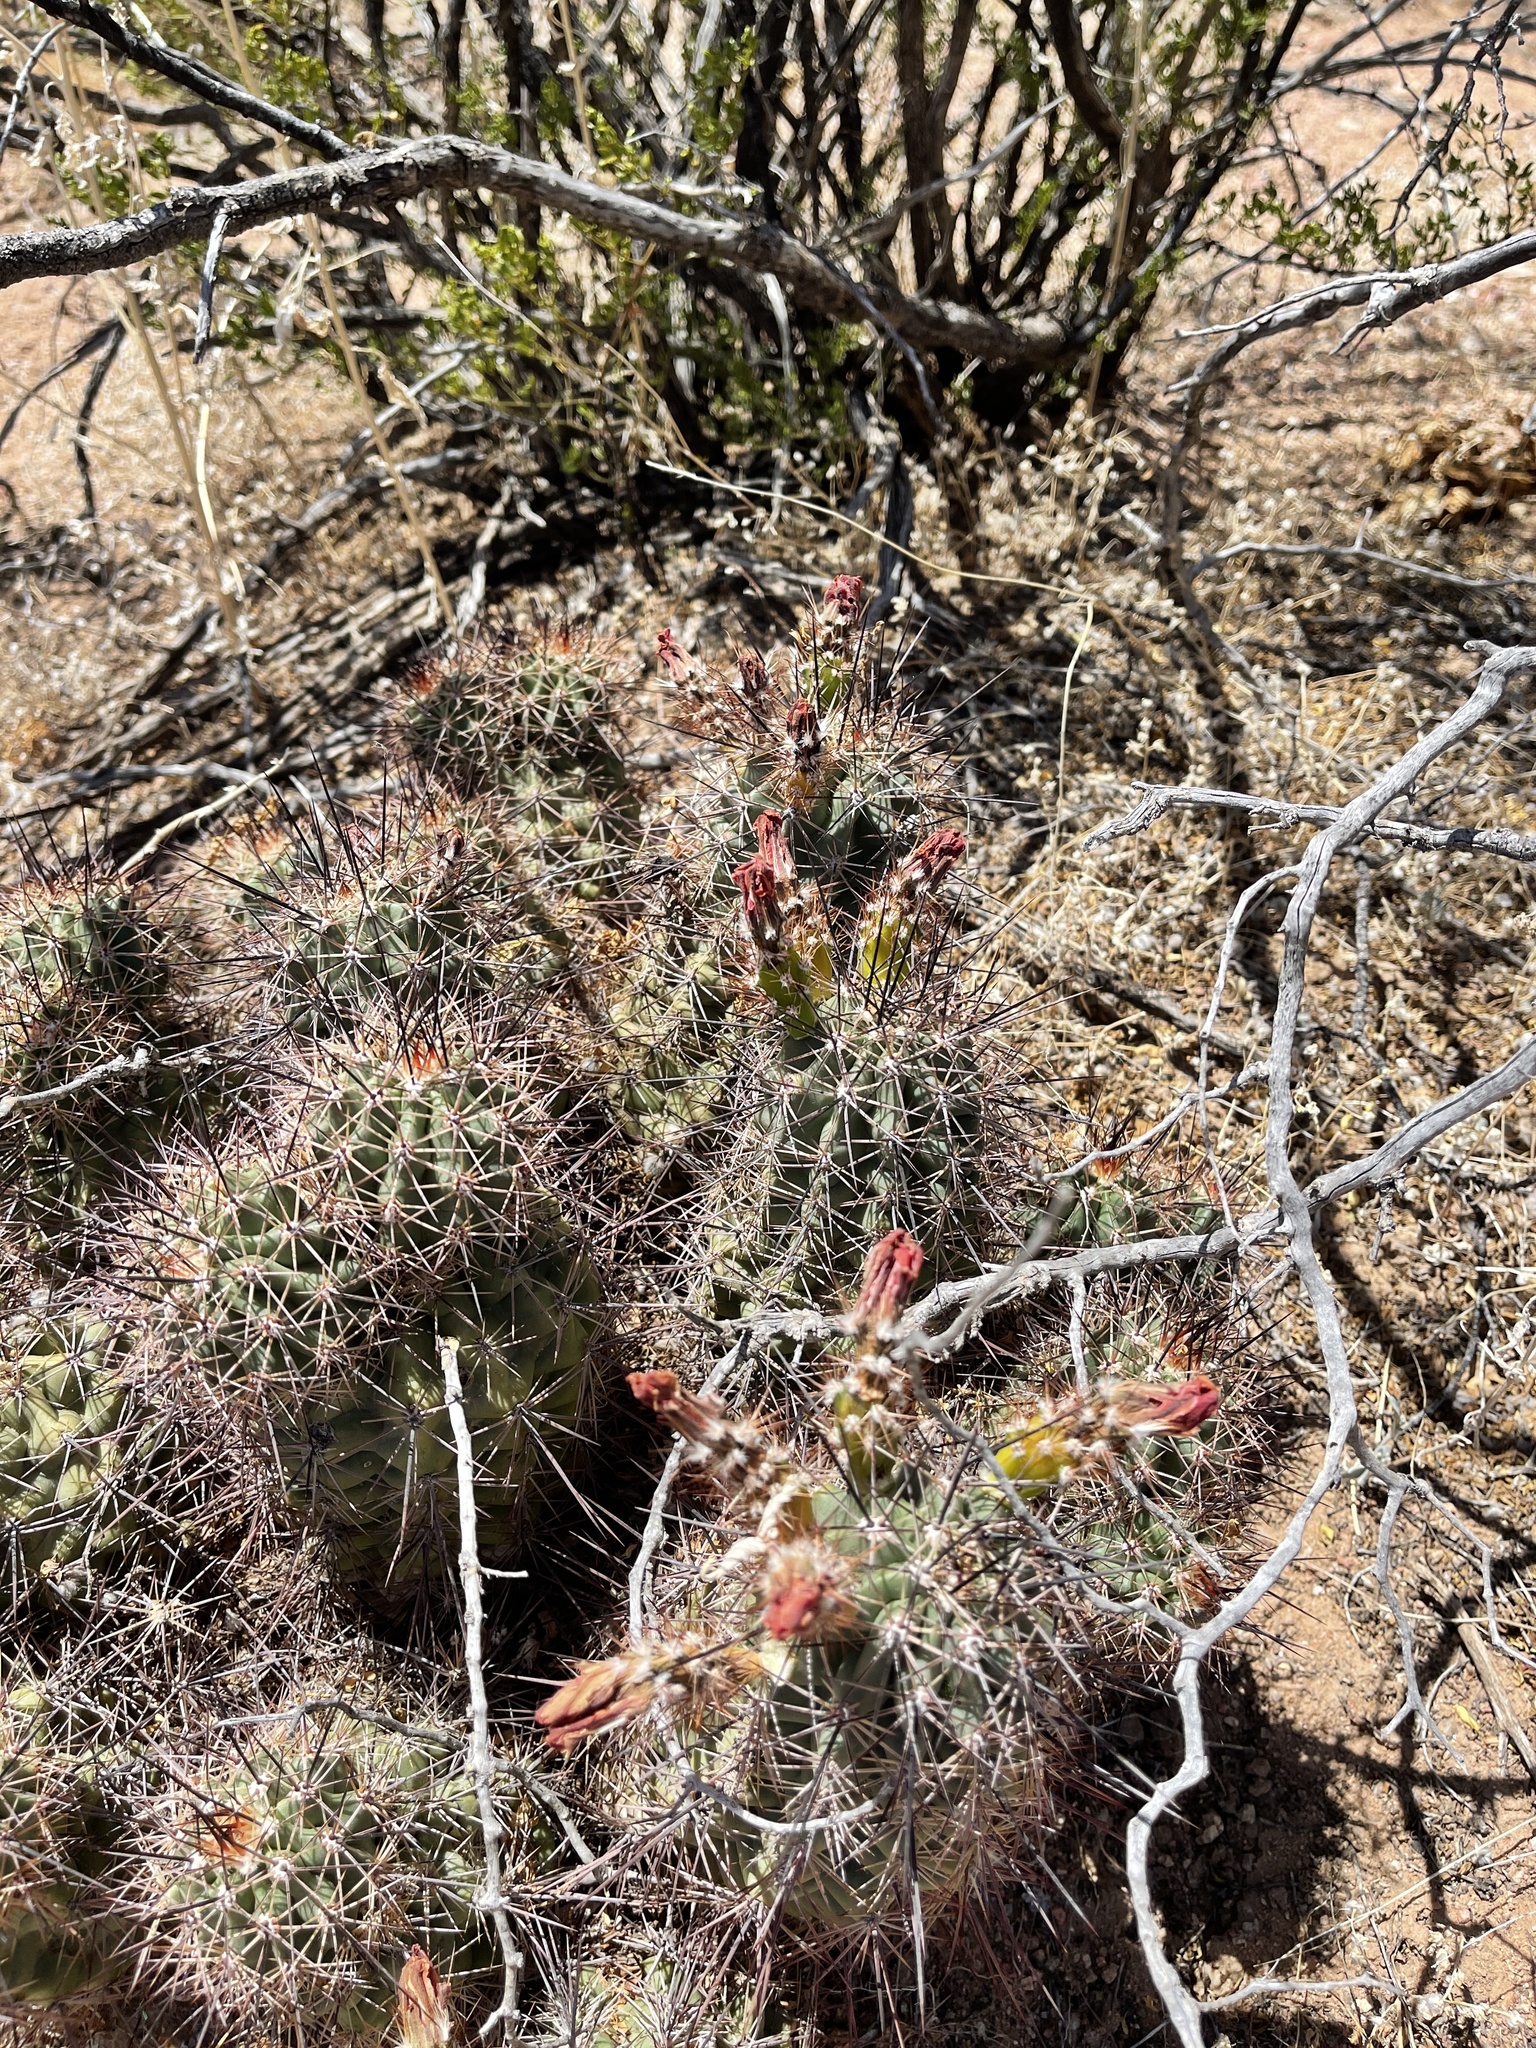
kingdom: Plantae
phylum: Tracheophyta
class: Magnoliopsida
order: Caryophyllales
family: Cactaceae
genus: Echinocereus
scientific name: Echinocereus coccineus
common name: Scarlet hedgehog cactus
